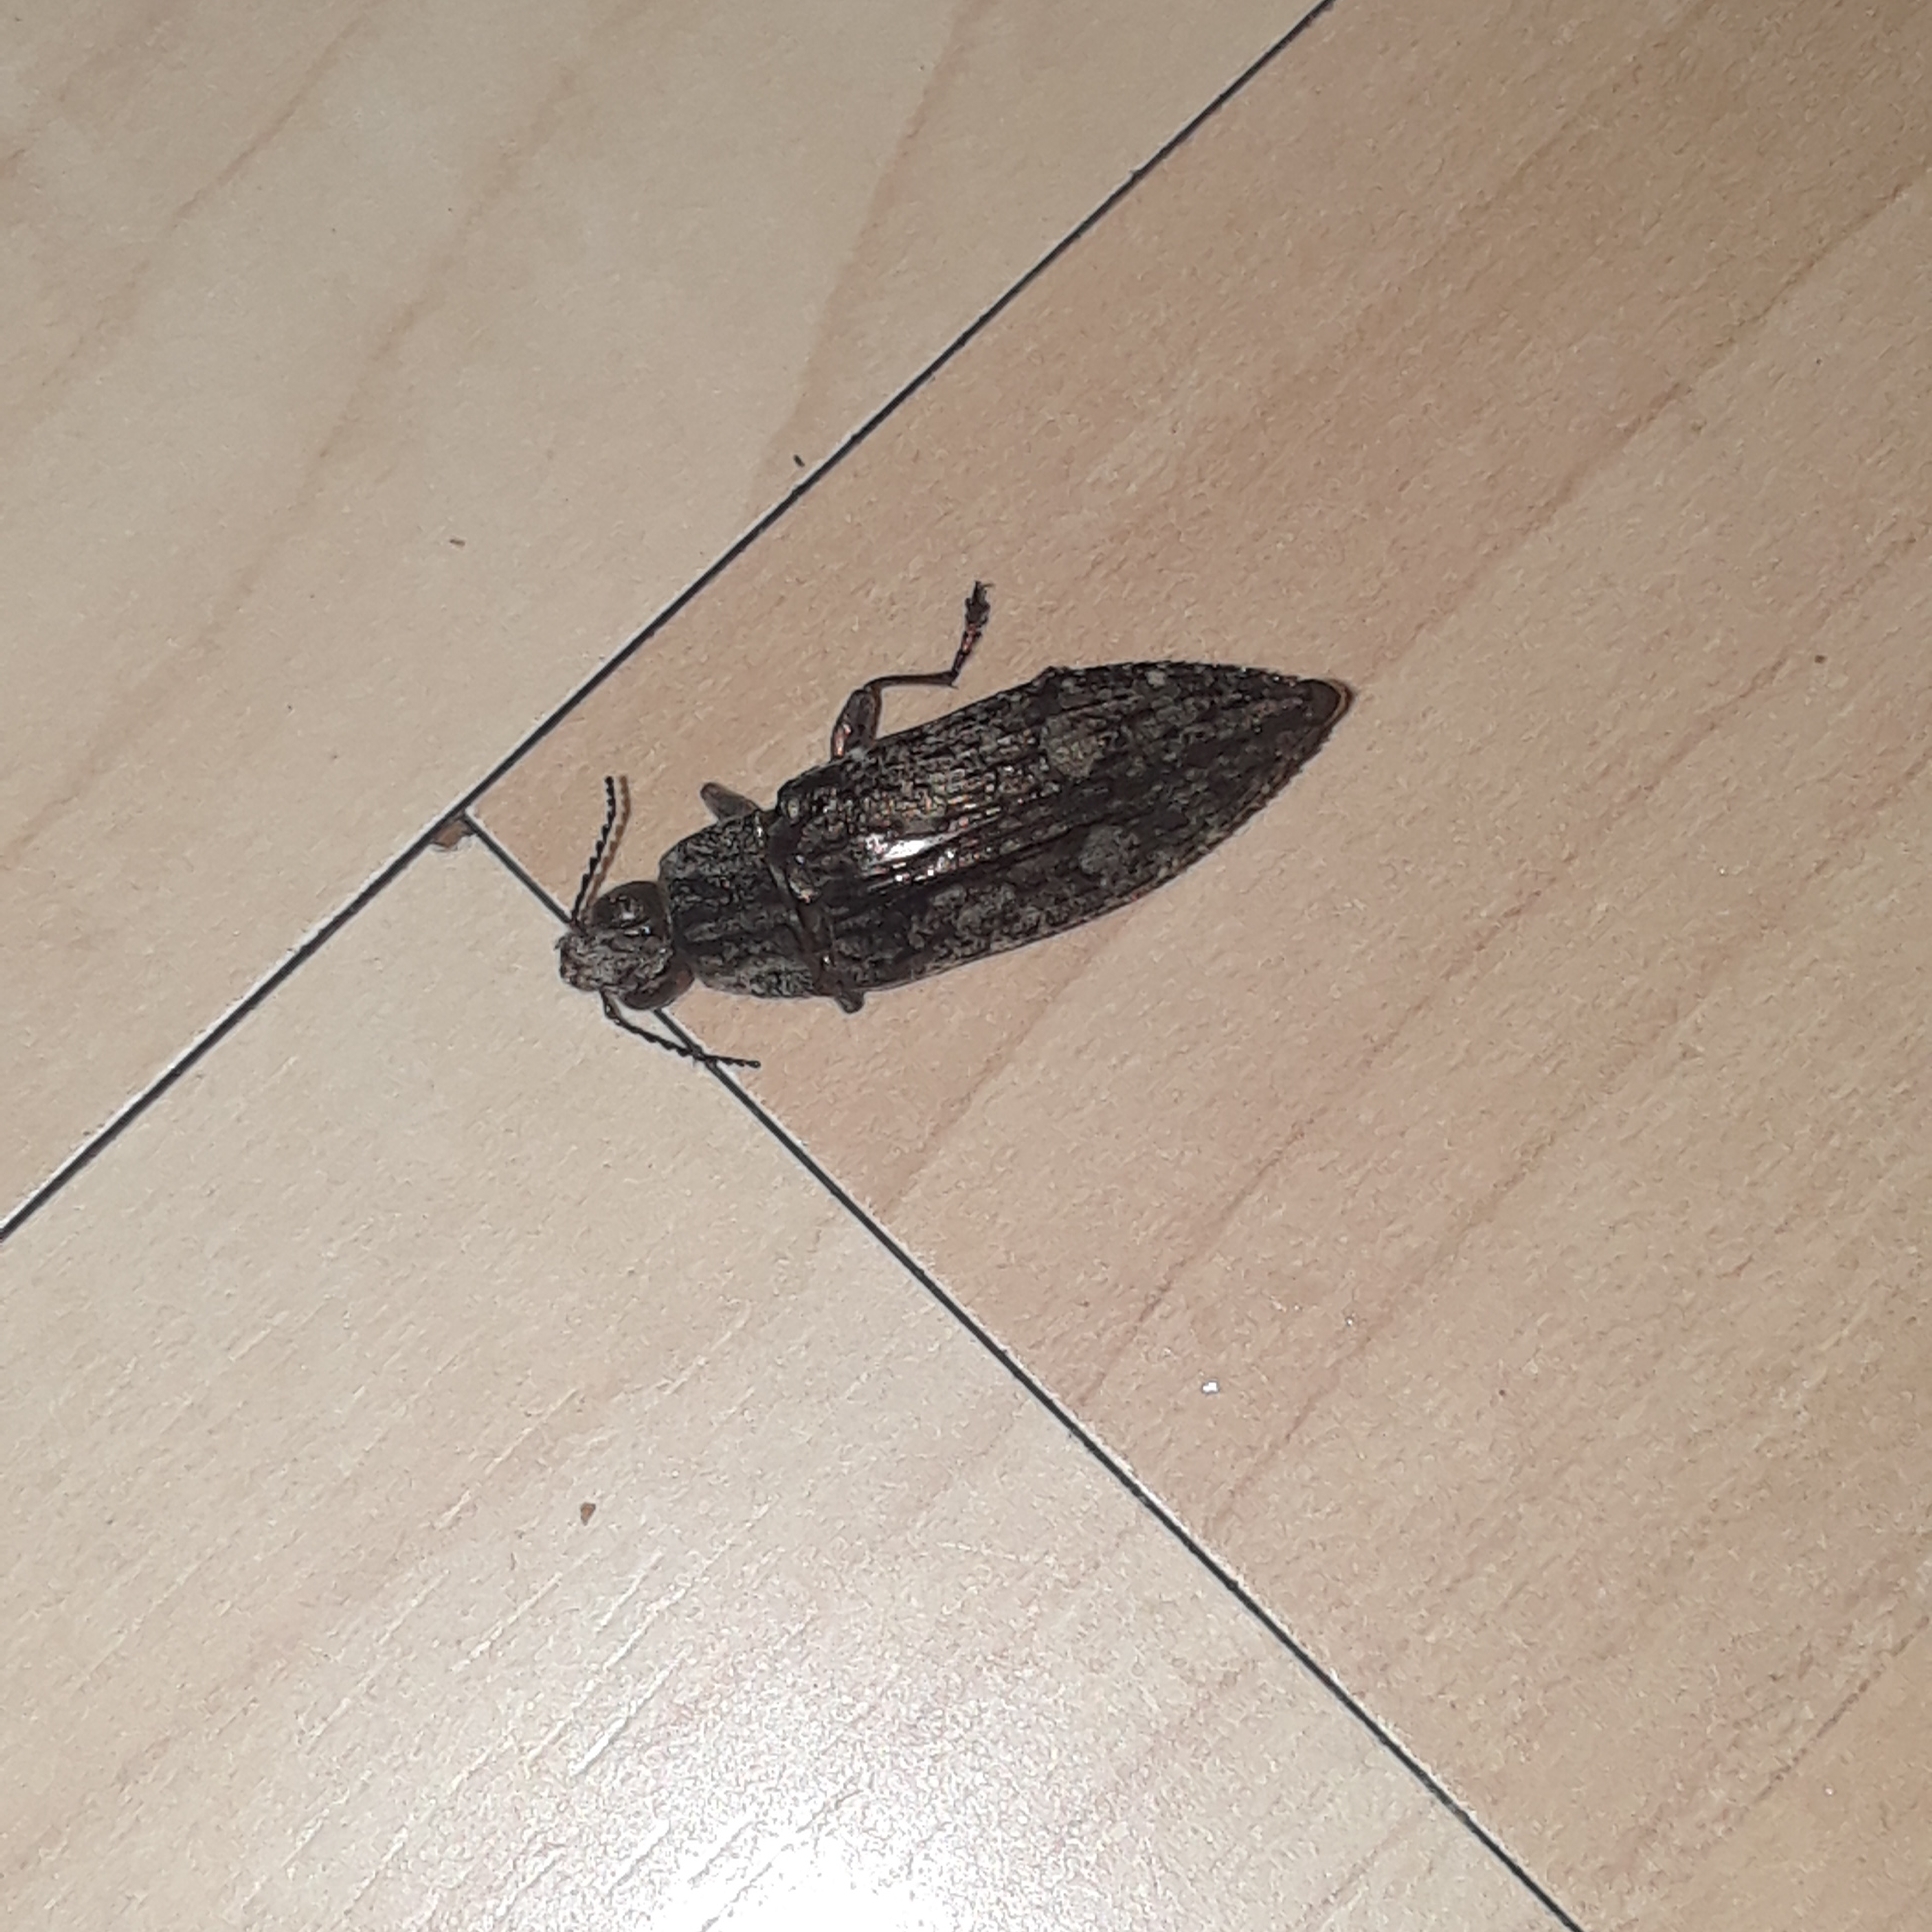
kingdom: Animalia
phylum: Arthropoda
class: Insecta
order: Coleoptera
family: Buprestidae
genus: Texania
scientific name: Texania campestris
